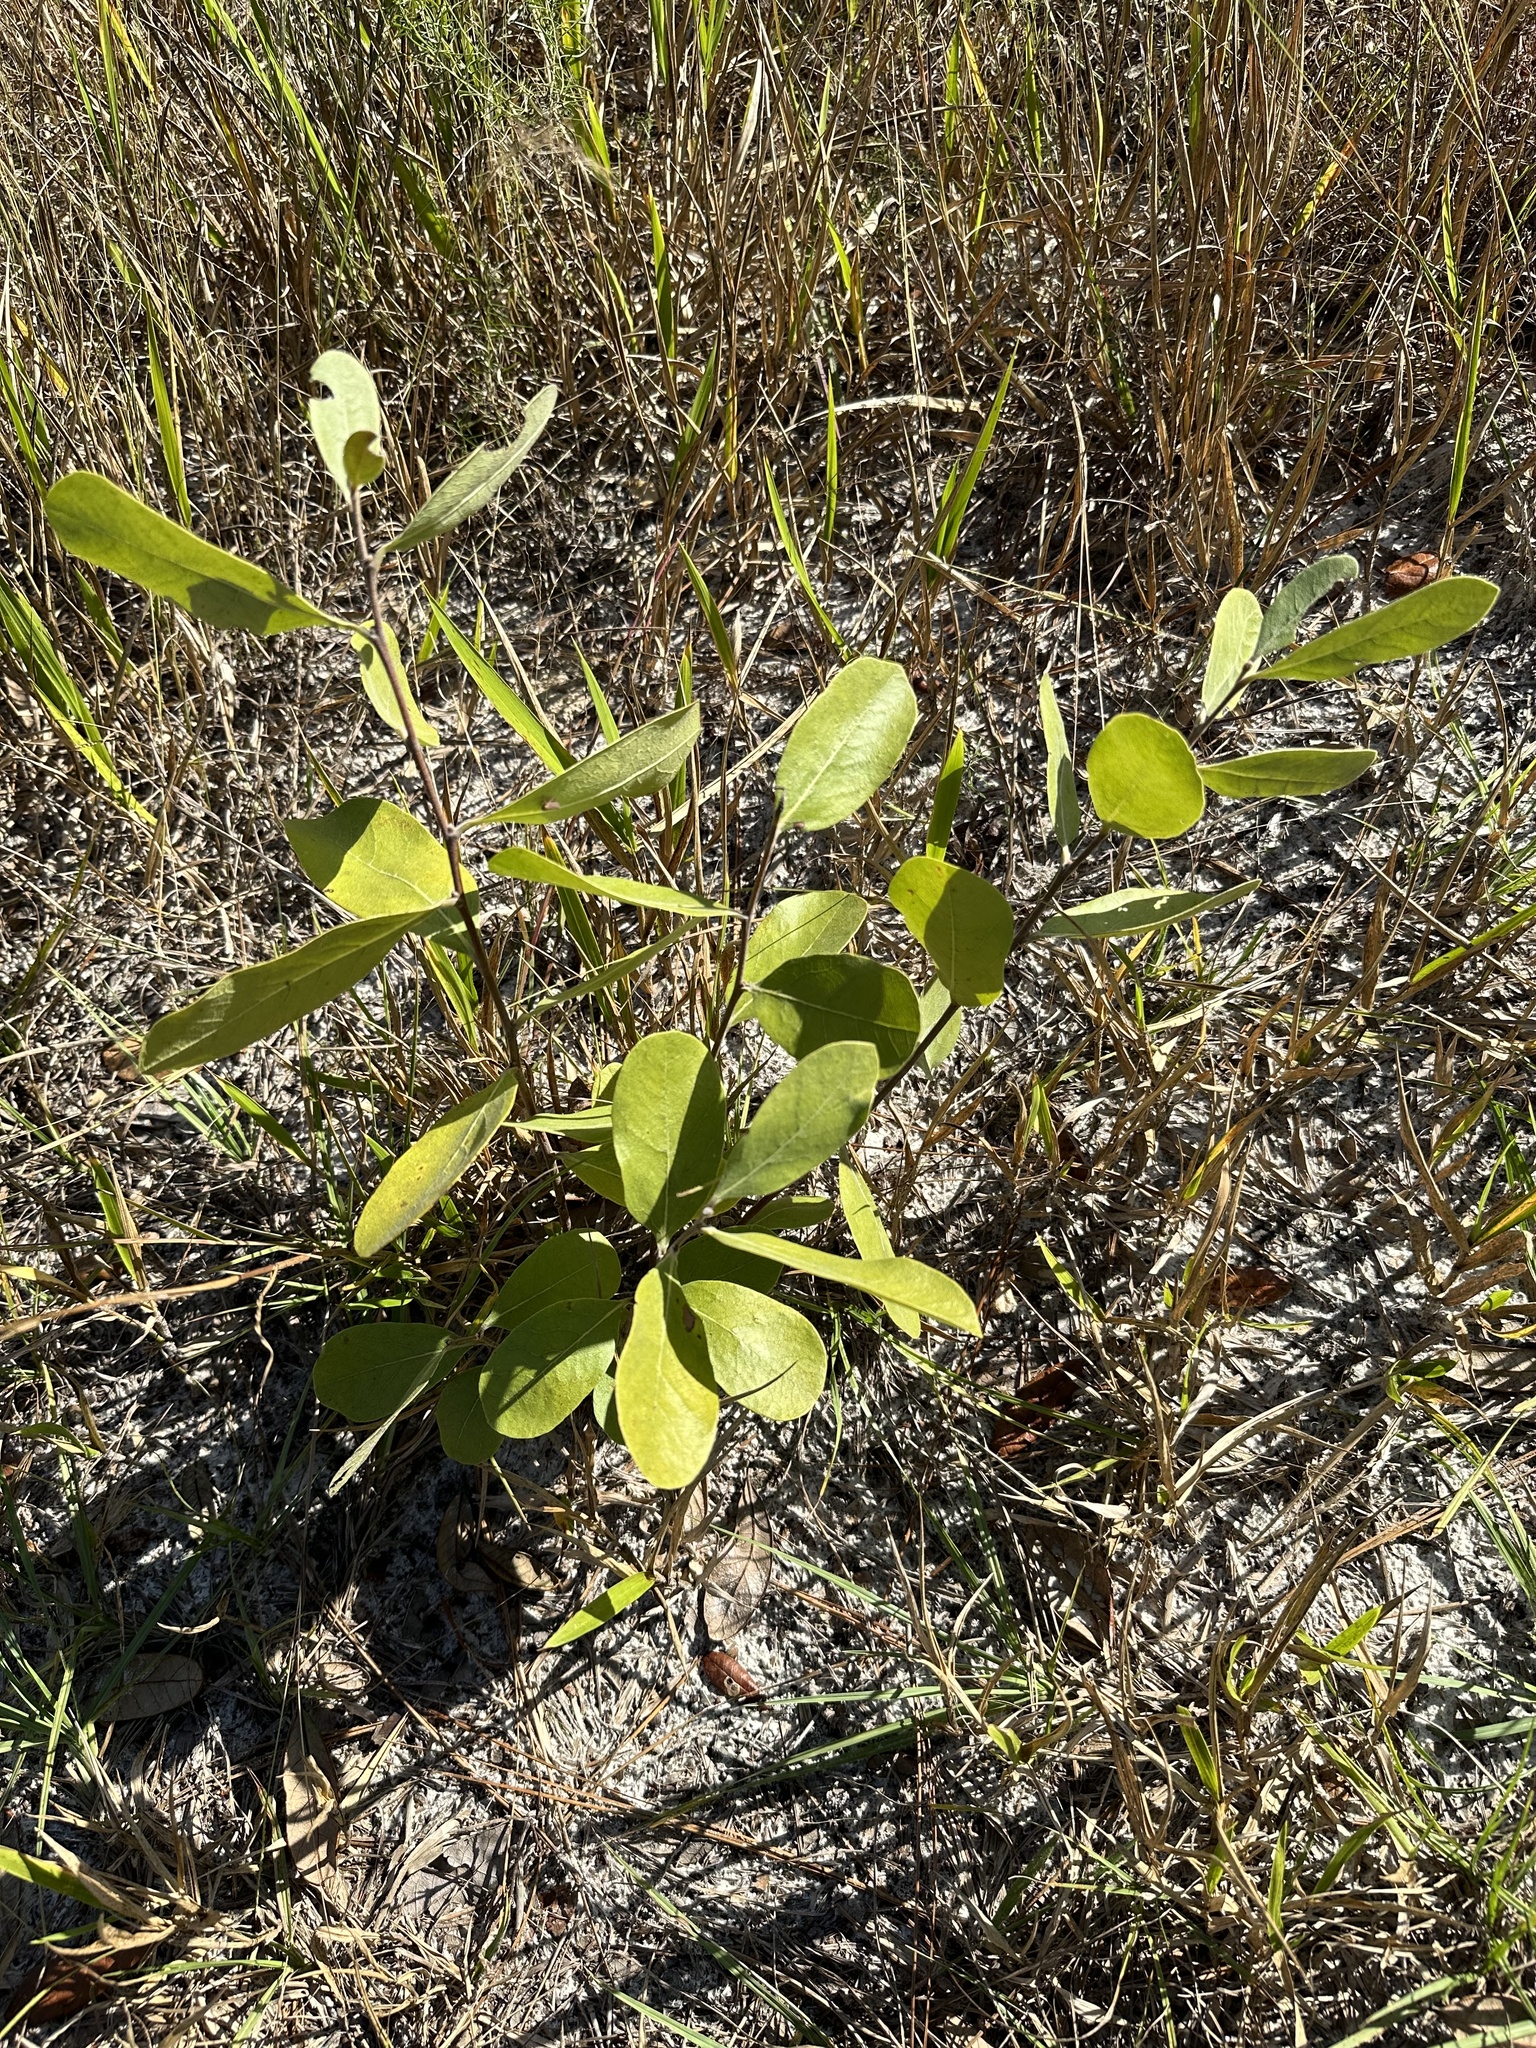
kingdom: Plantae
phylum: Tracheophyta
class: Magnoliopsida
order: Magnoliales
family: Annonaceae
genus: Asimina
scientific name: Asimina speciosa
